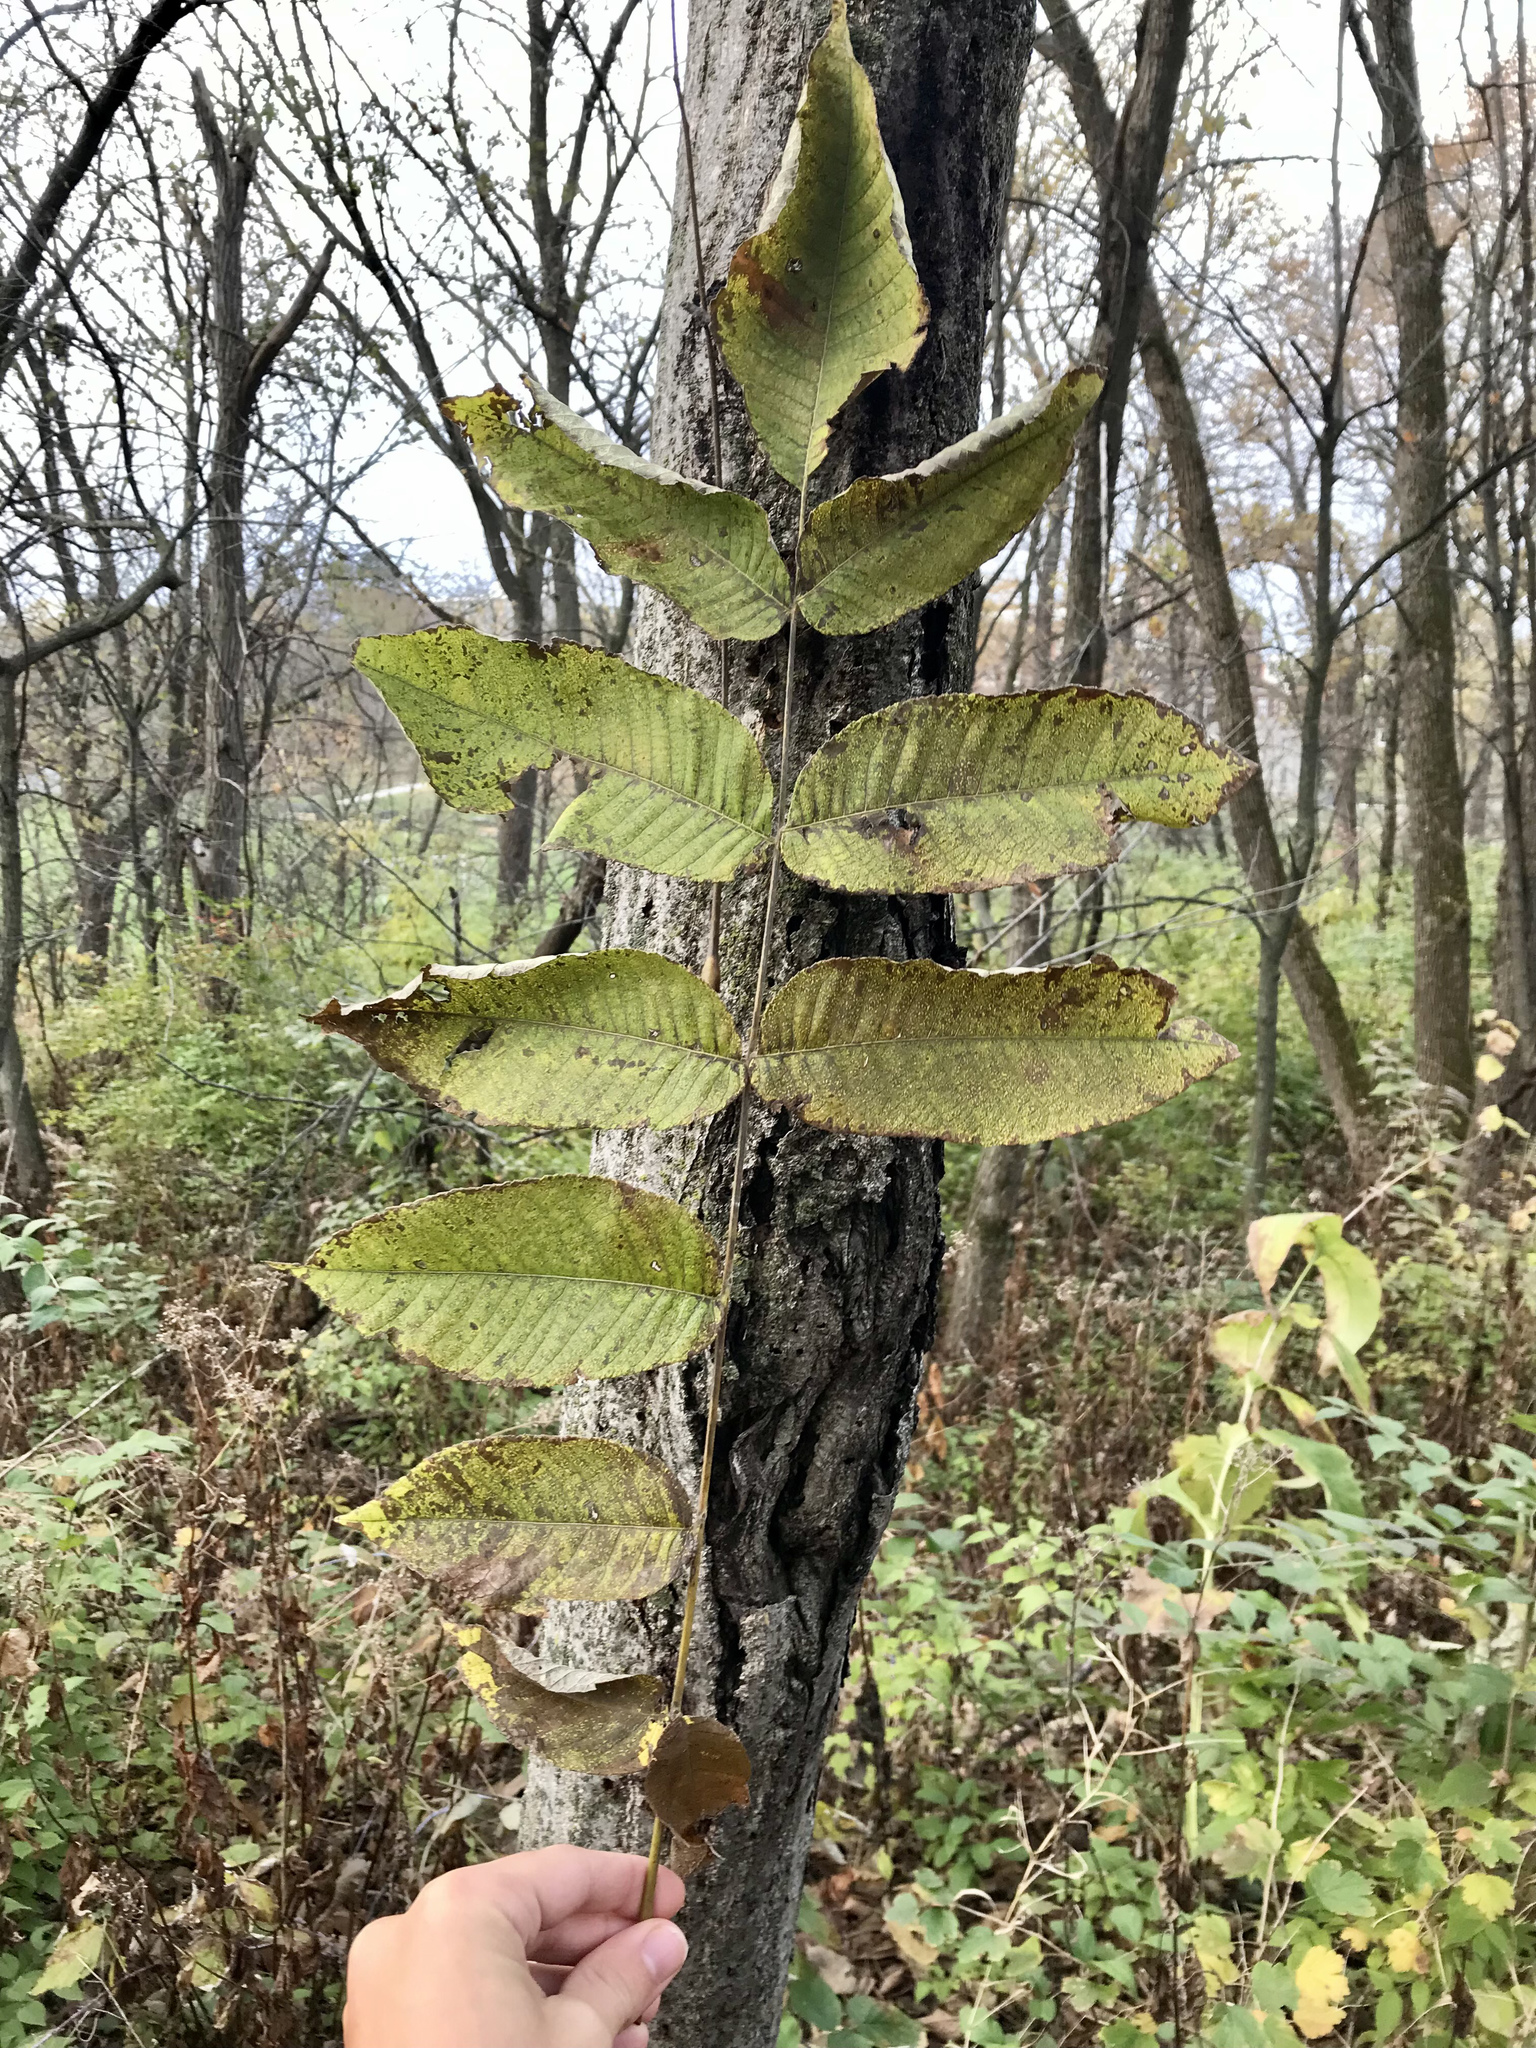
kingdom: Plantae
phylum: Tracheophyta
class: Magnoliopsida
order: Fagales
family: Juglandaceae
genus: Juglans
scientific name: Juglans cinerea
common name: Butternut
